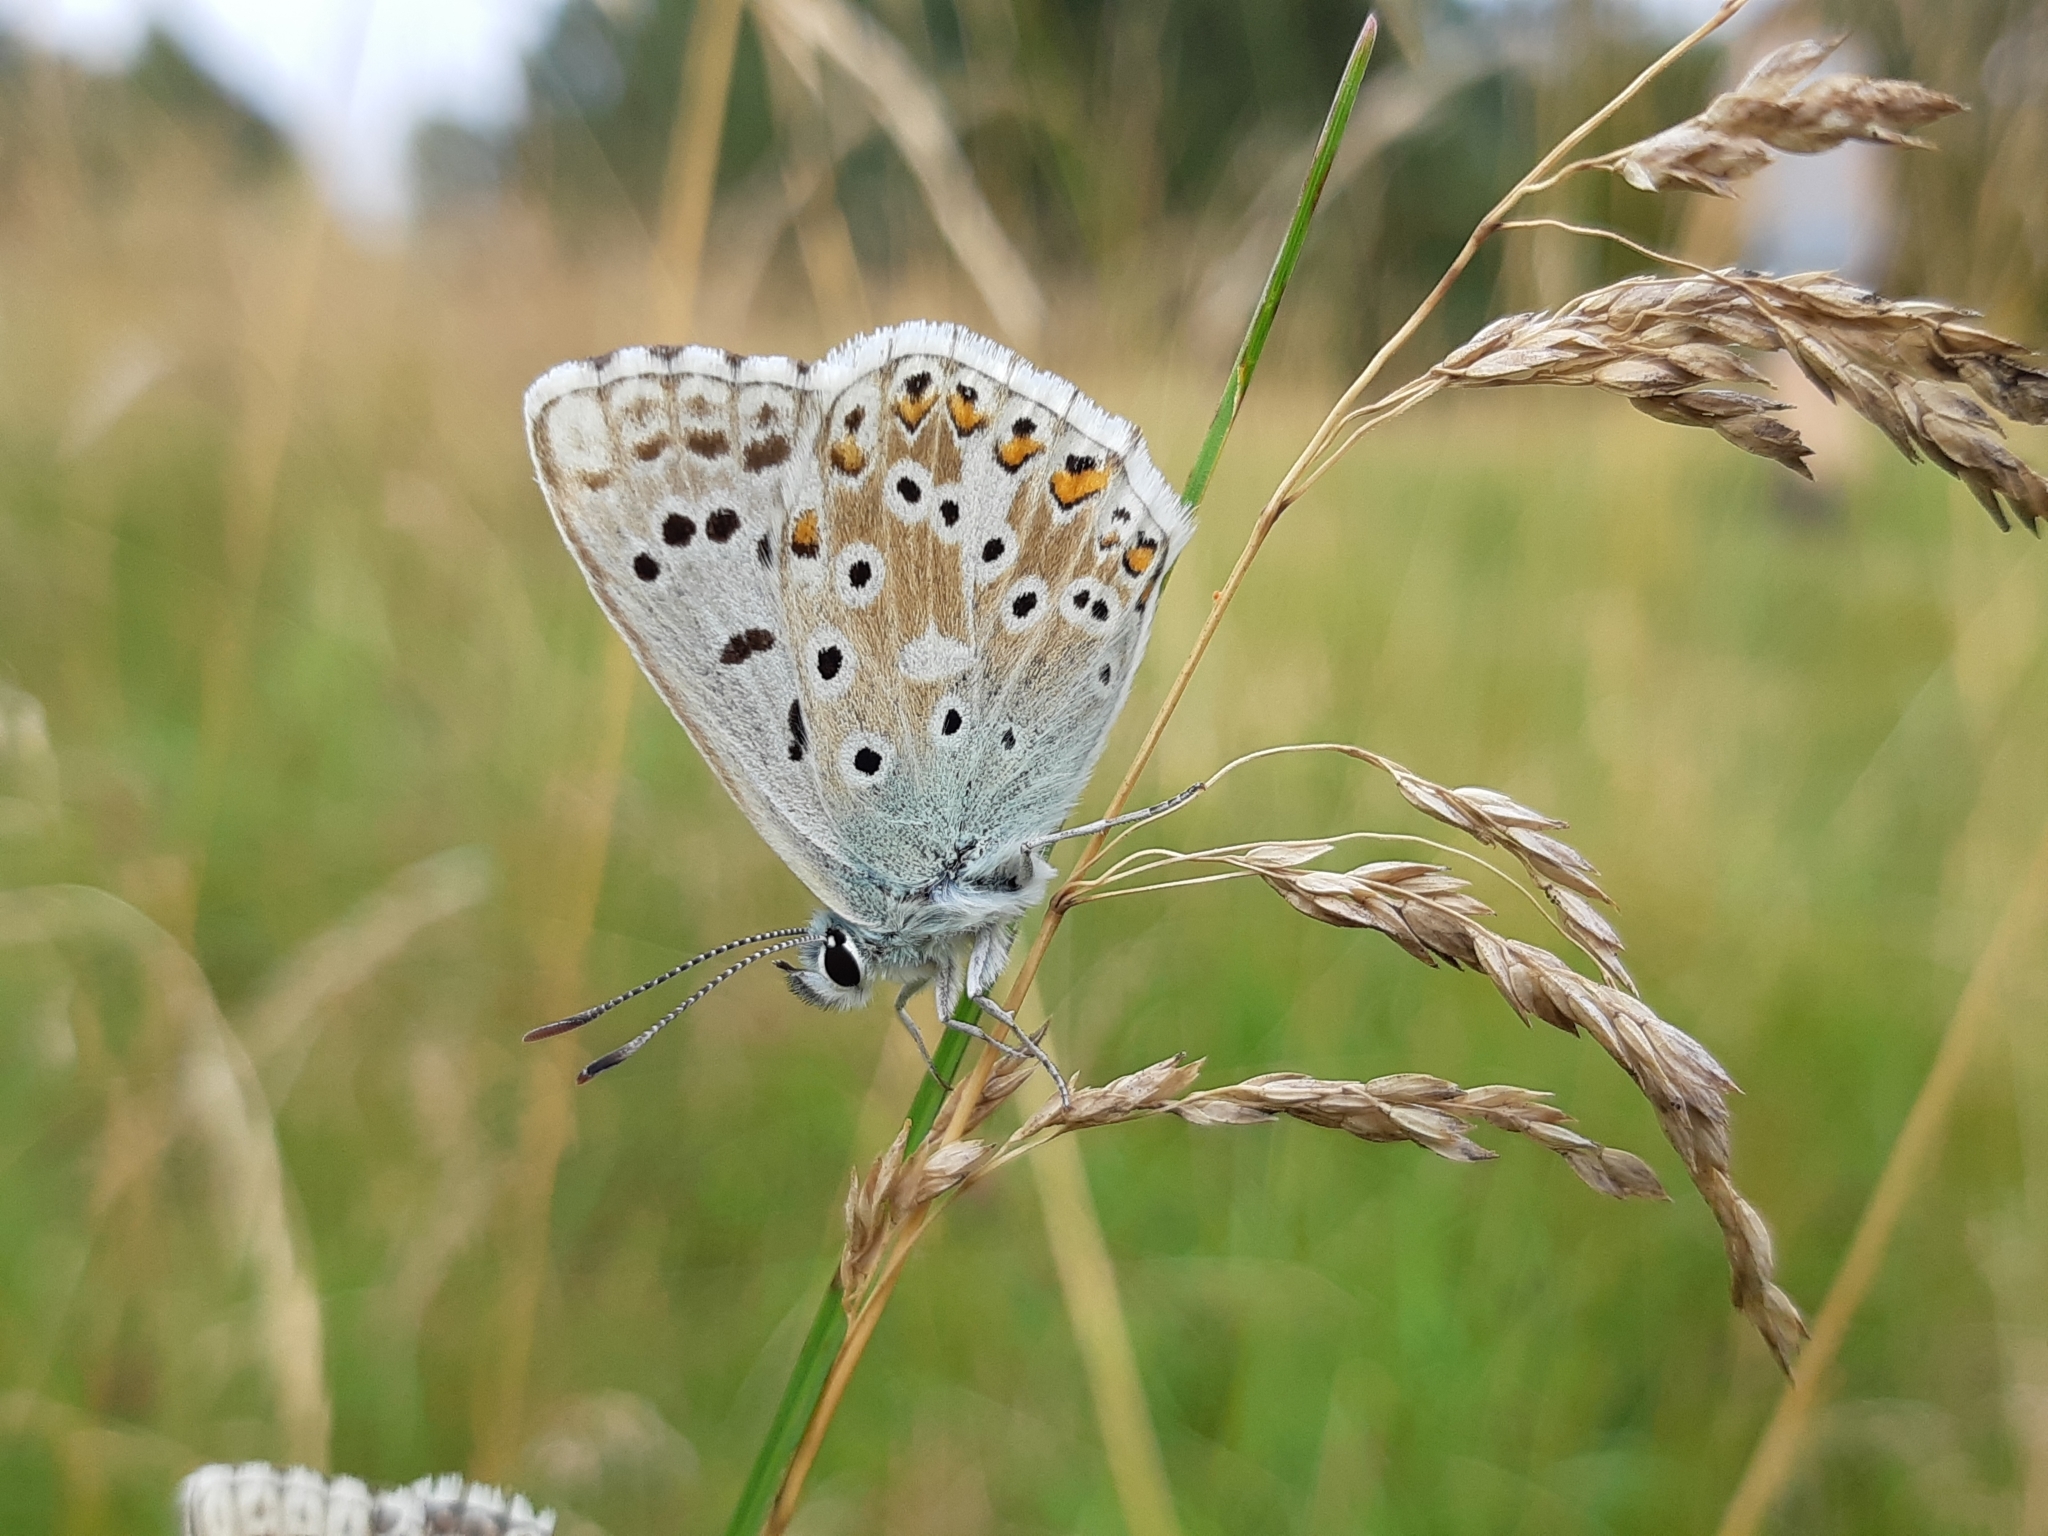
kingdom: Animalia
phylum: Arthropoda
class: Insecta
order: Lepidoptera
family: Lycaenidae
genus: Lysandra
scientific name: Lysandra coridon
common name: Chalkhill blue
